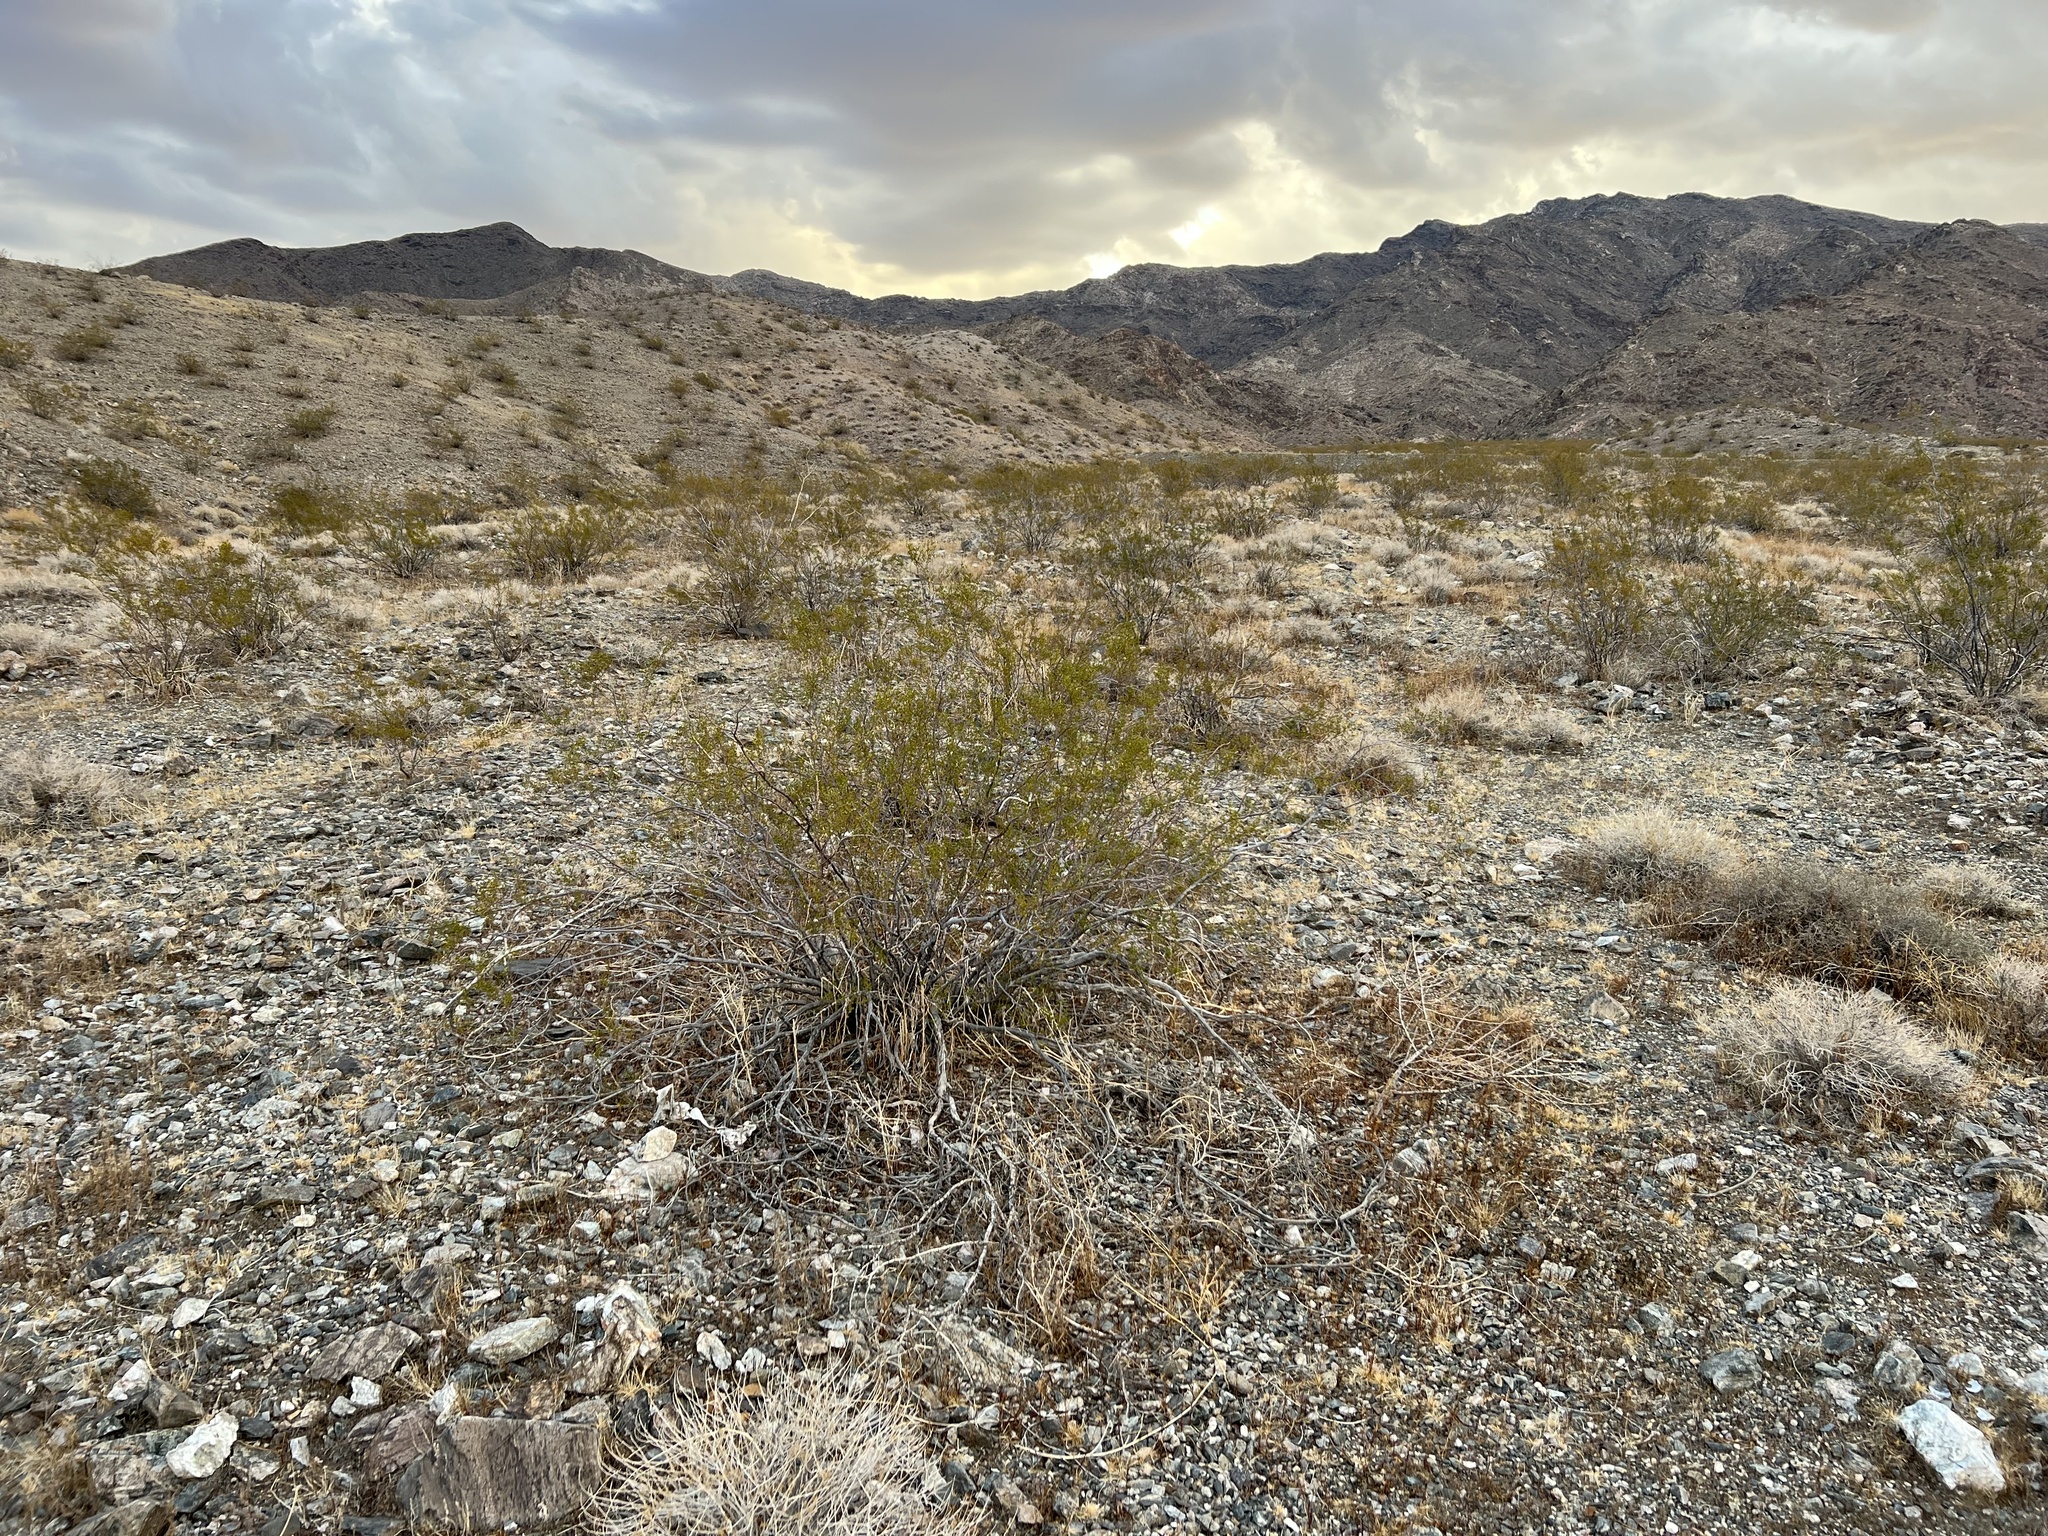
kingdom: Plantae
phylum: Tracheophyta
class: Magnoliopsida
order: Zygophyllales
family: Zygophyllaceae
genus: Larrea
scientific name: Larrea tridentata
